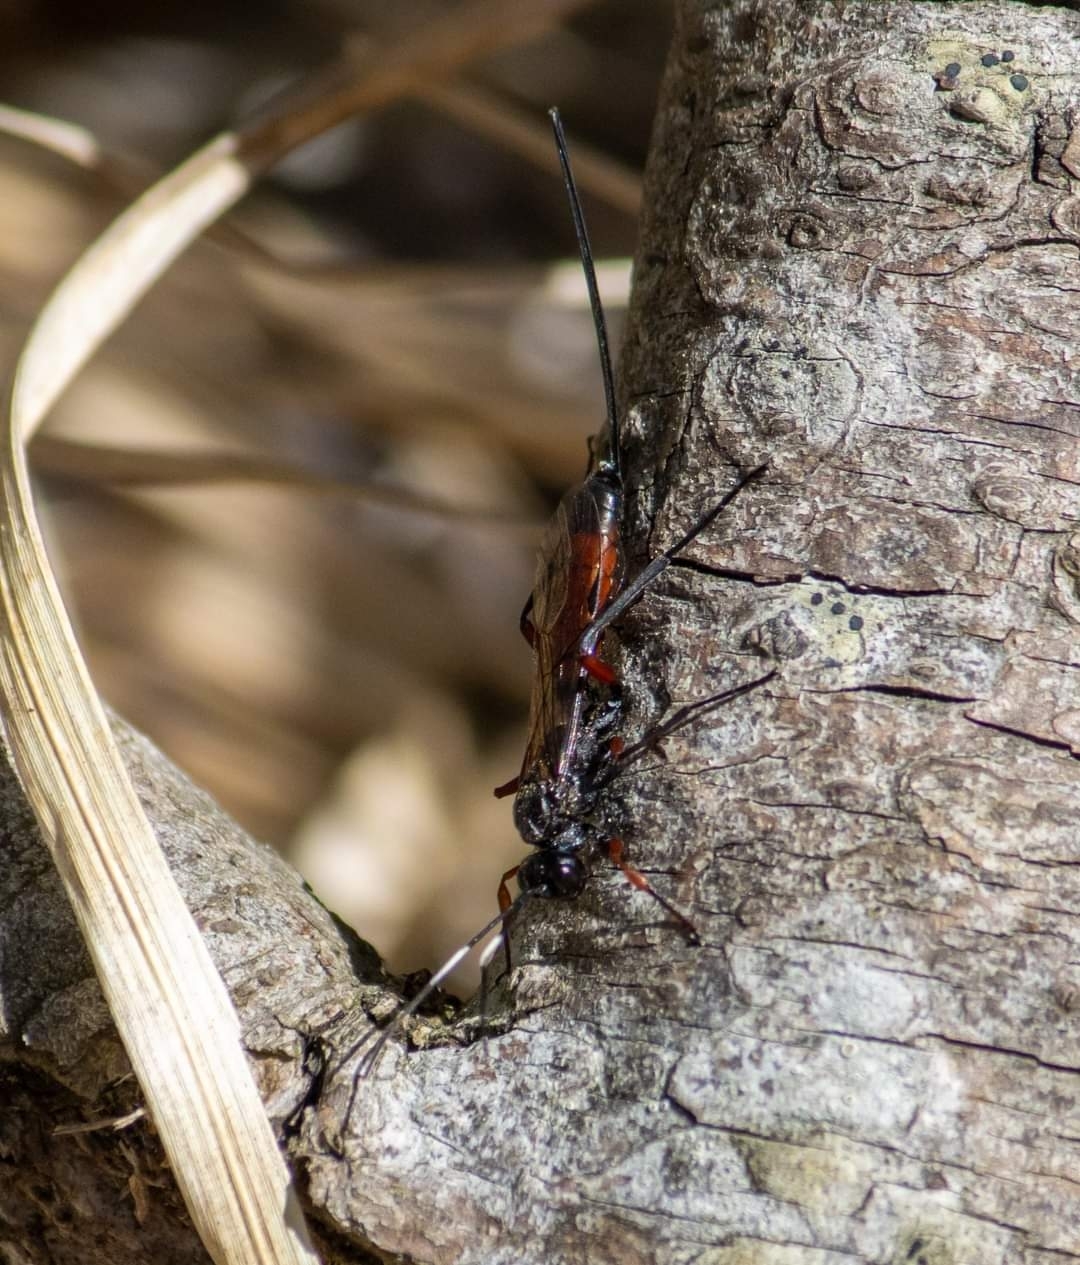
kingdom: Animalia
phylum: Arthropoda
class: Insecta
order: Hymenoptera
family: Ichneumonidae
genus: Echthrus
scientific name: Echthrus reluctator
